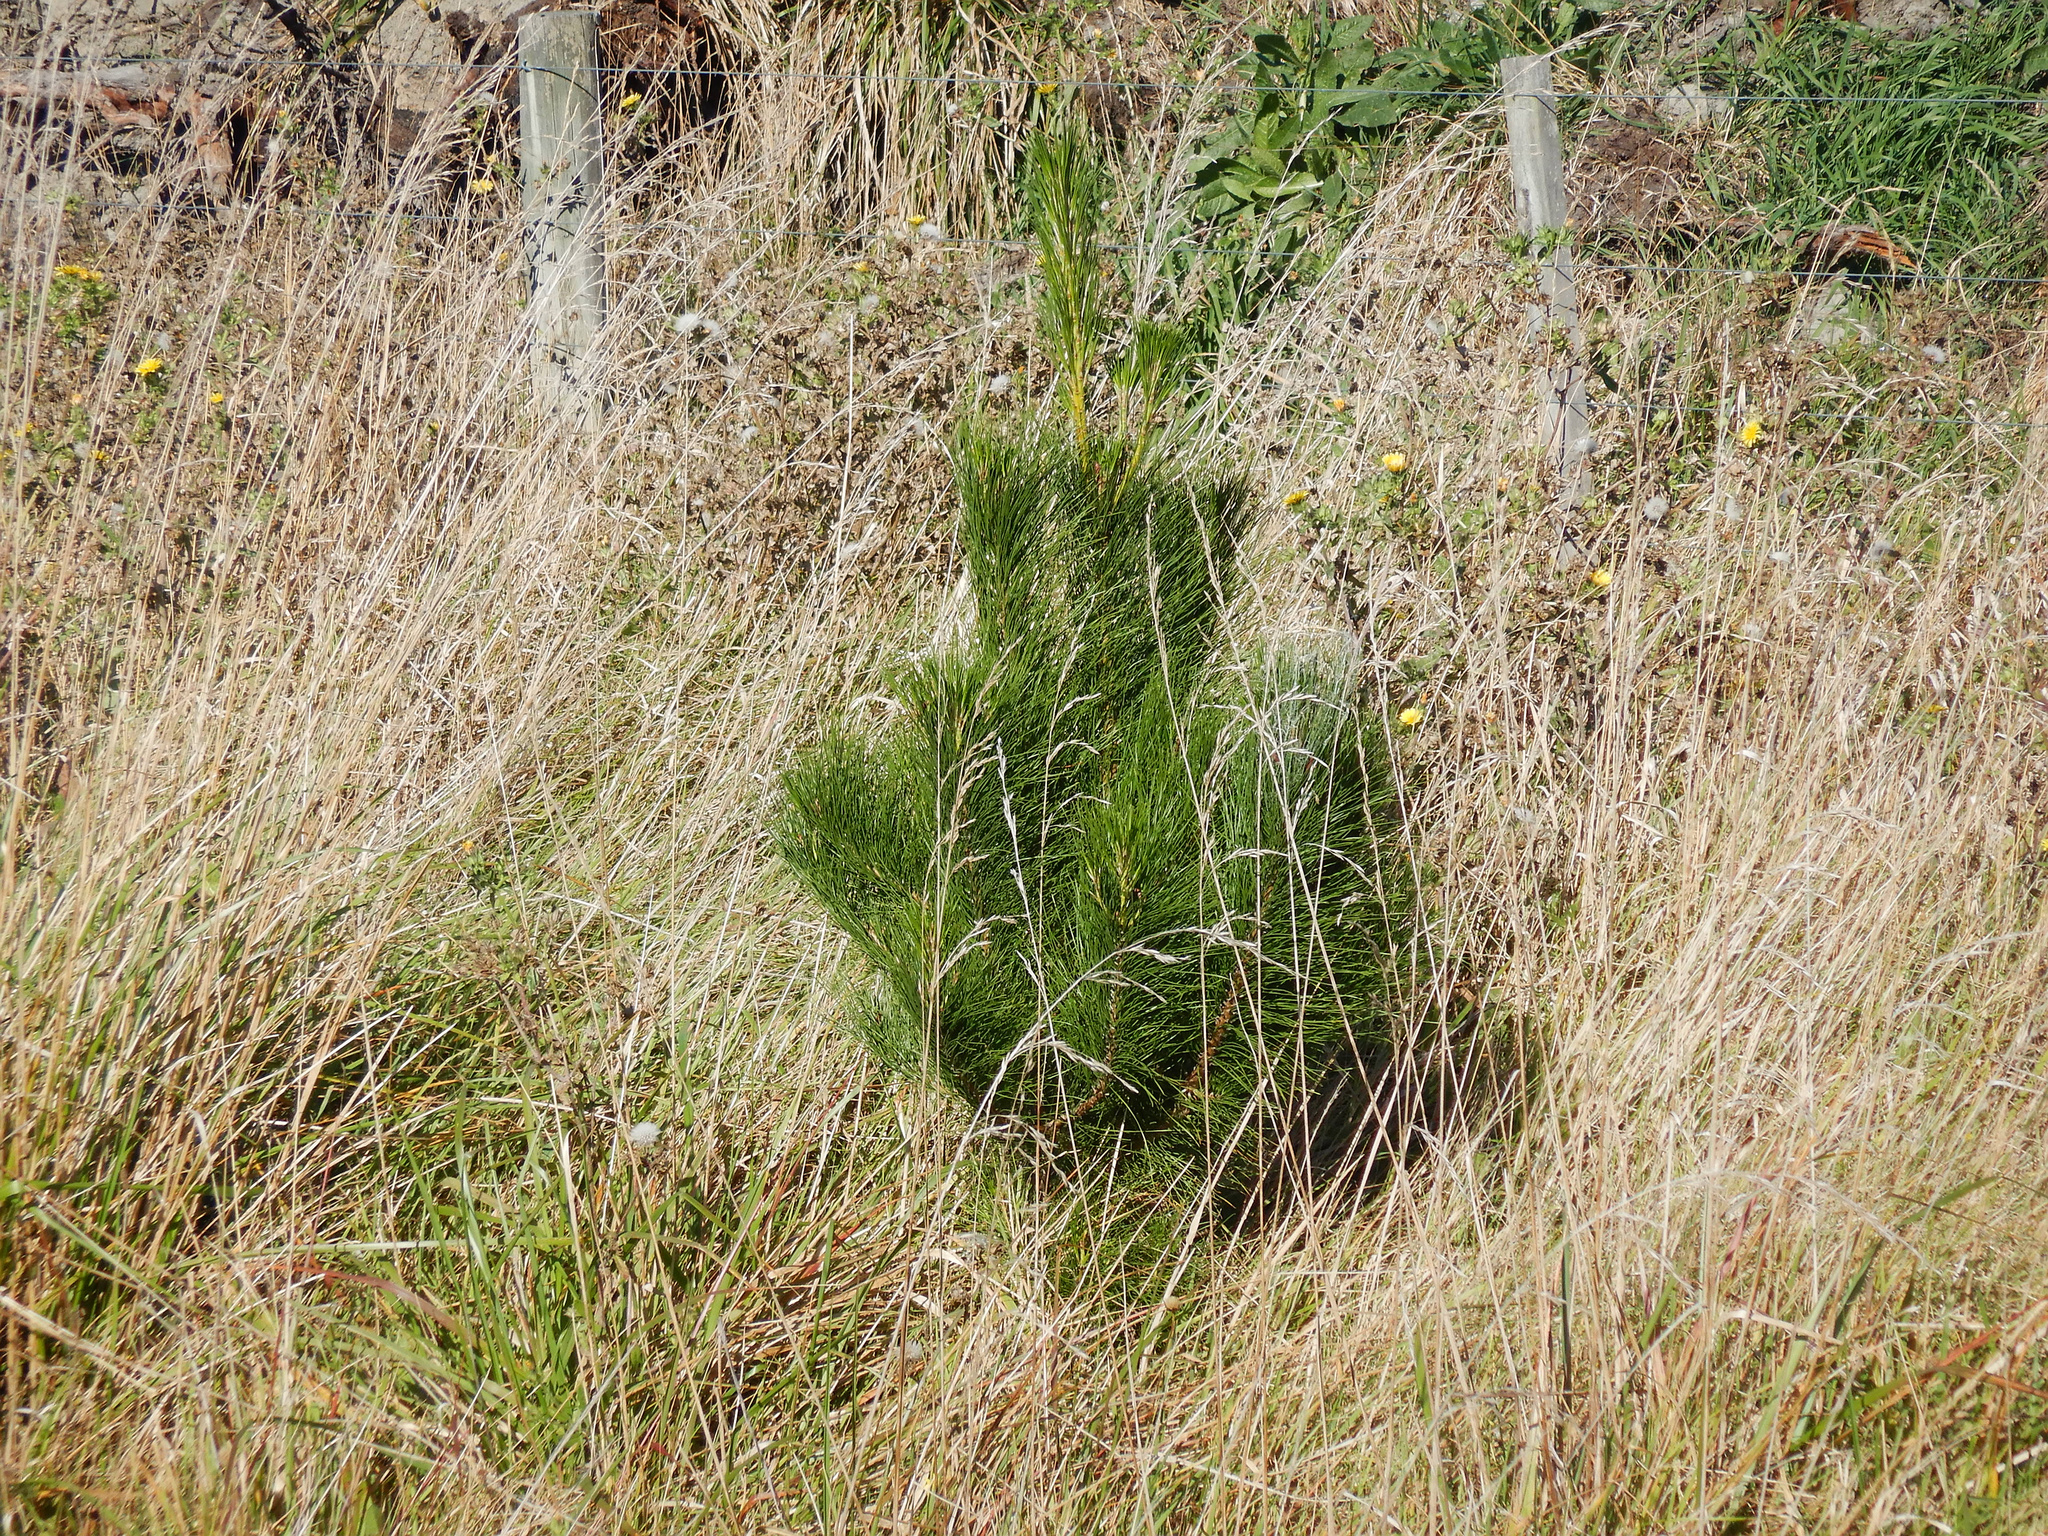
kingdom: Plantae
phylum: Tracheophyta
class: Pinopsida
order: Pinales
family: Pinaceae
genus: Pinus
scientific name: Pinus radiata
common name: Monterey pine
